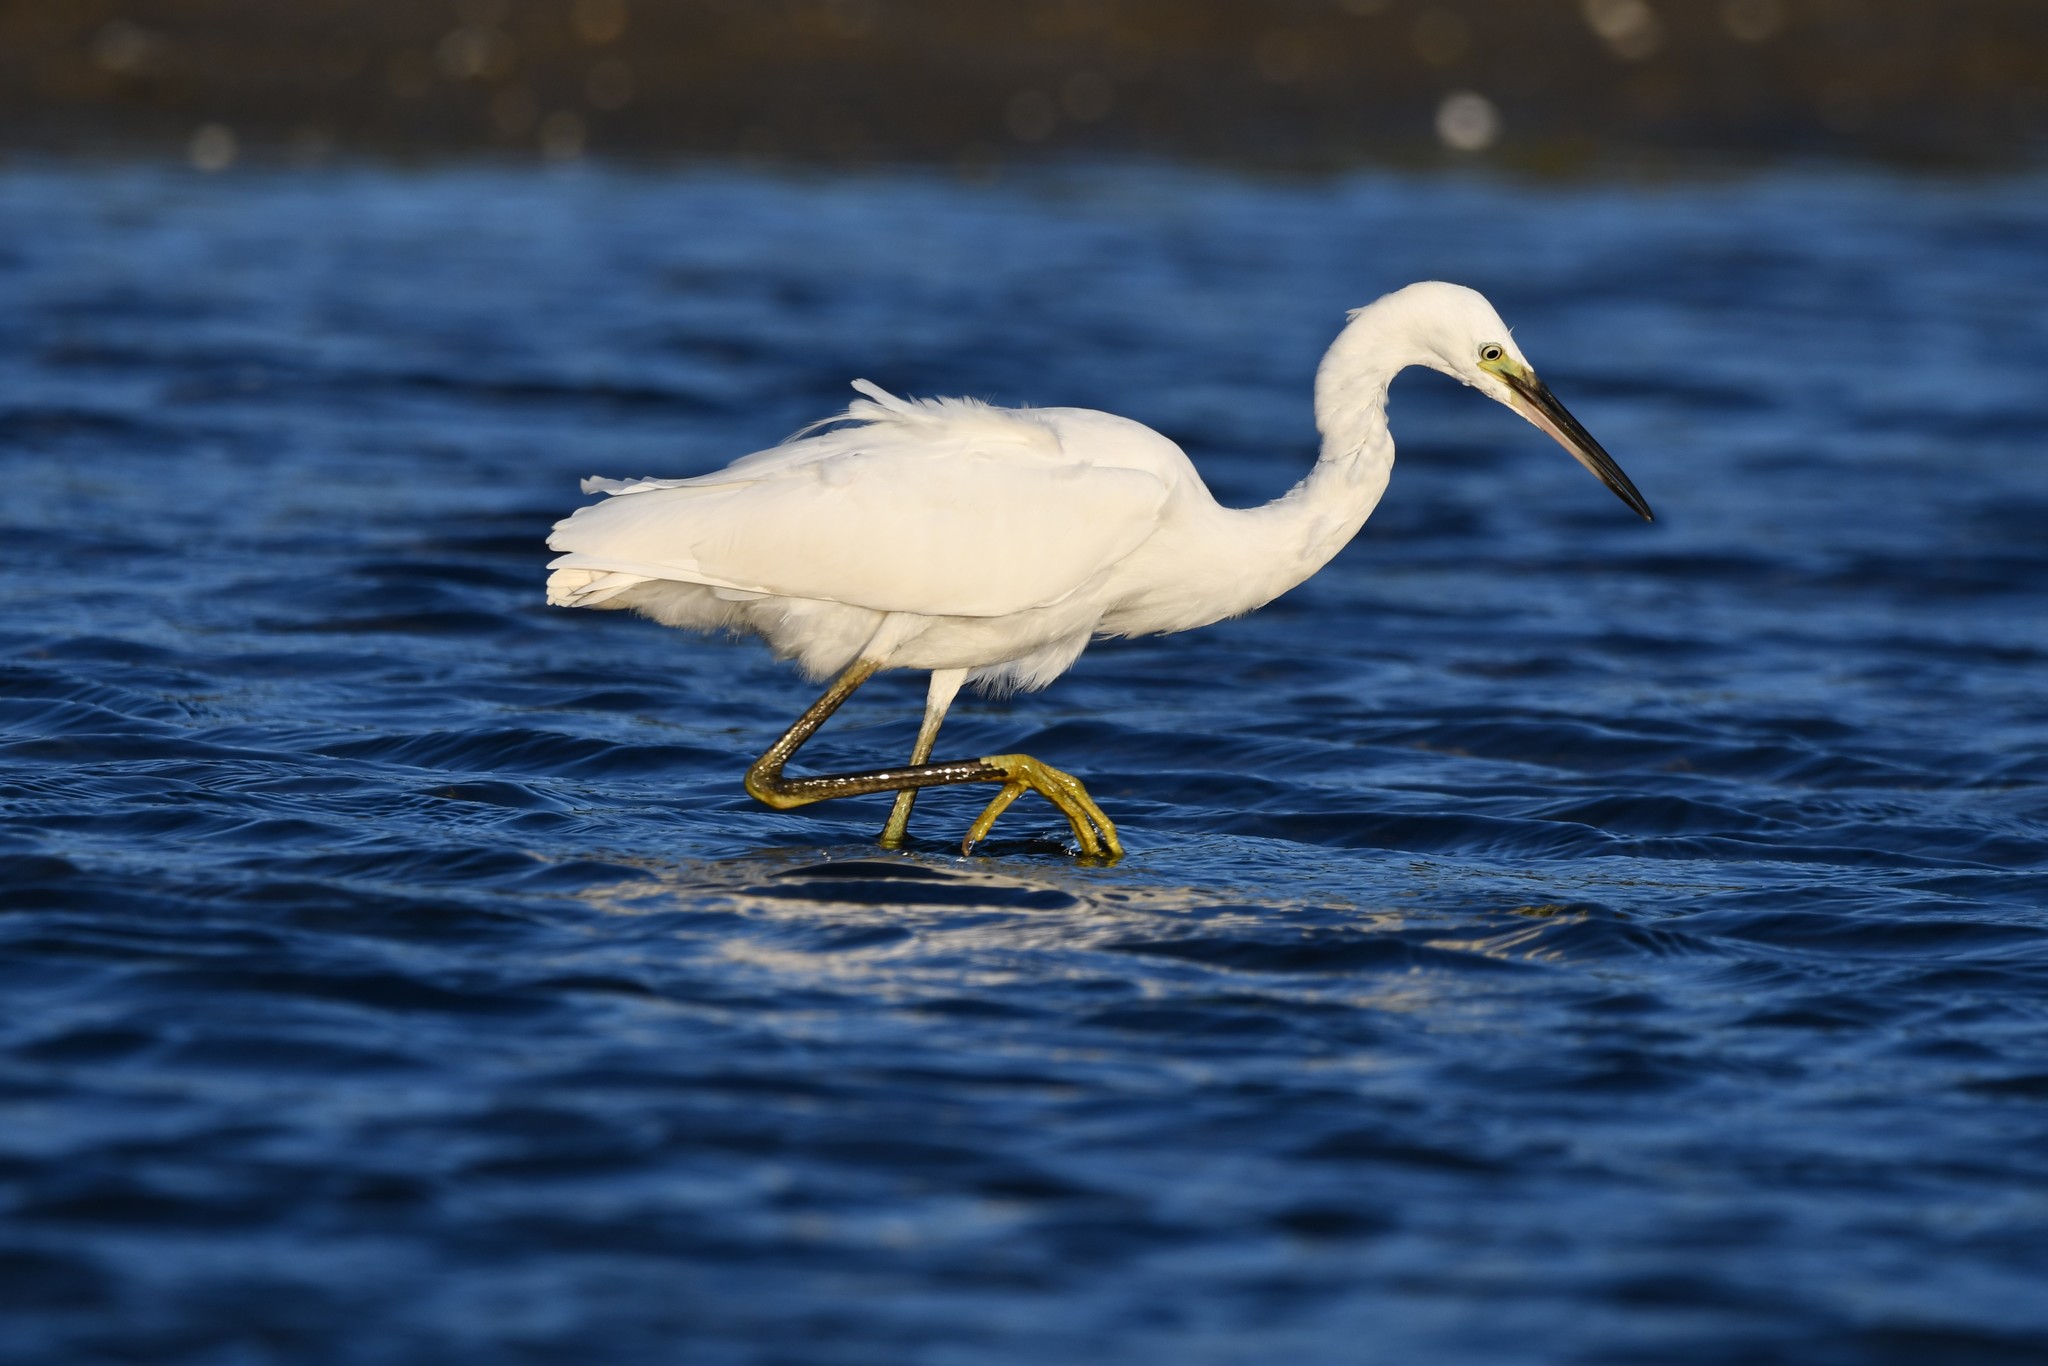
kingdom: Animalia
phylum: Chordata
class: Aves
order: Pelecaniformes
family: Ardeidae
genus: Egretta
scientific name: Egretta garzetta
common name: Little egret
